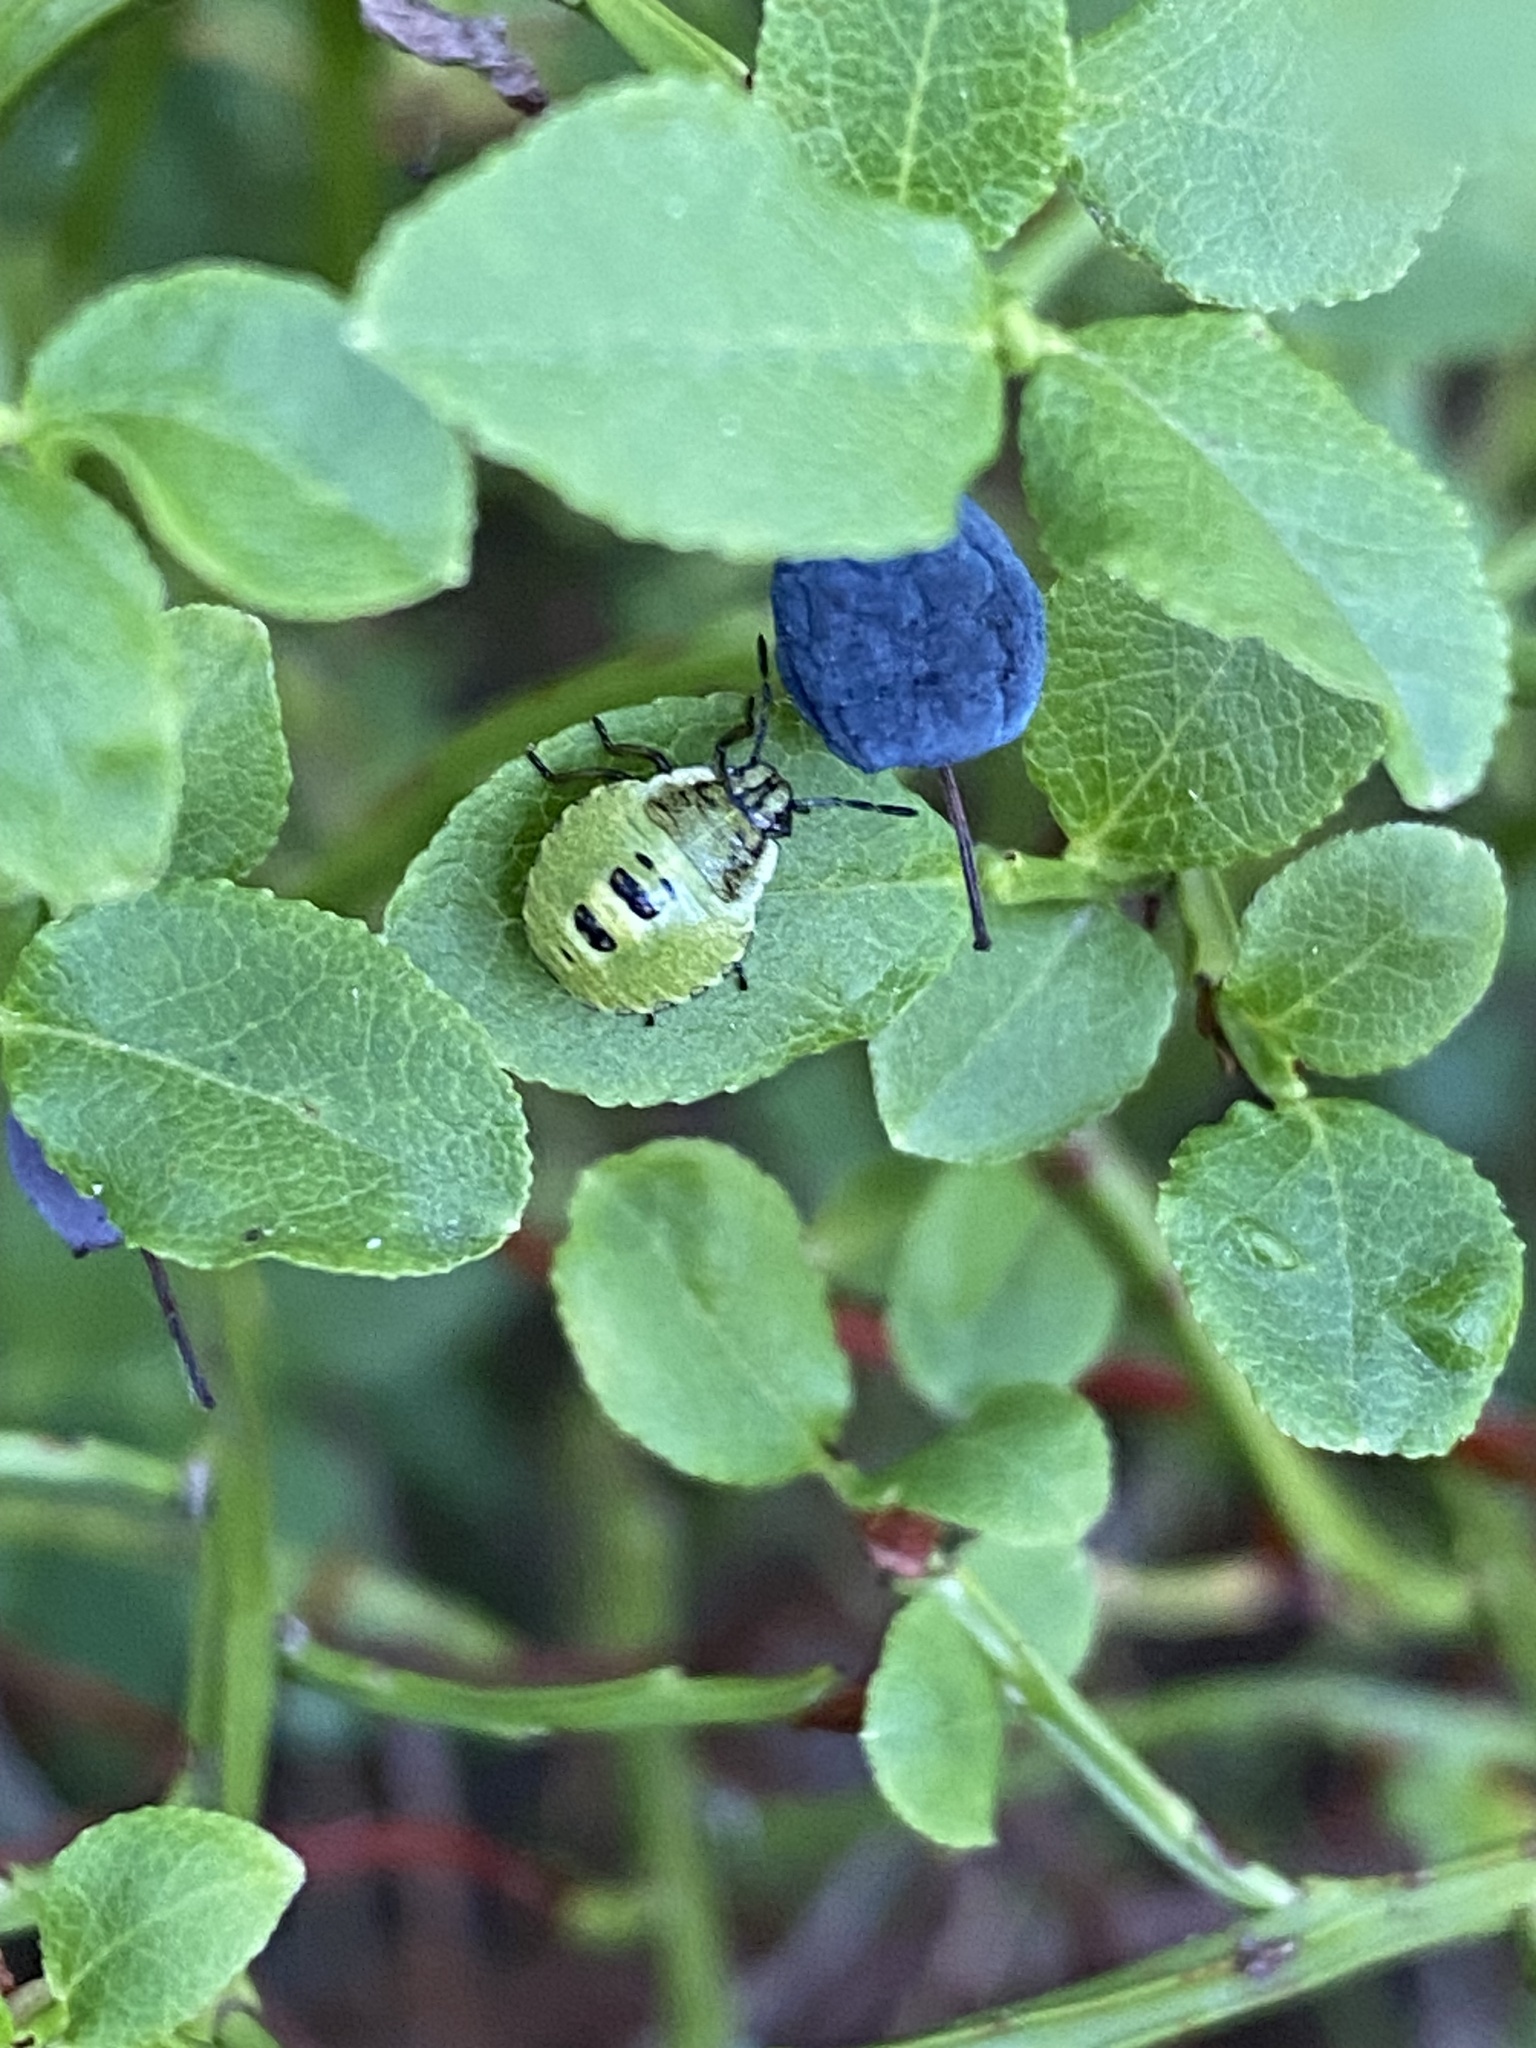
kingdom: Animalia
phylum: Arthropoda
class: Insecta
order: Hemiptera
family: Pentatomidae
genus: Palomena
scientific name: Palomena prasina
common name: Green shieldbug
